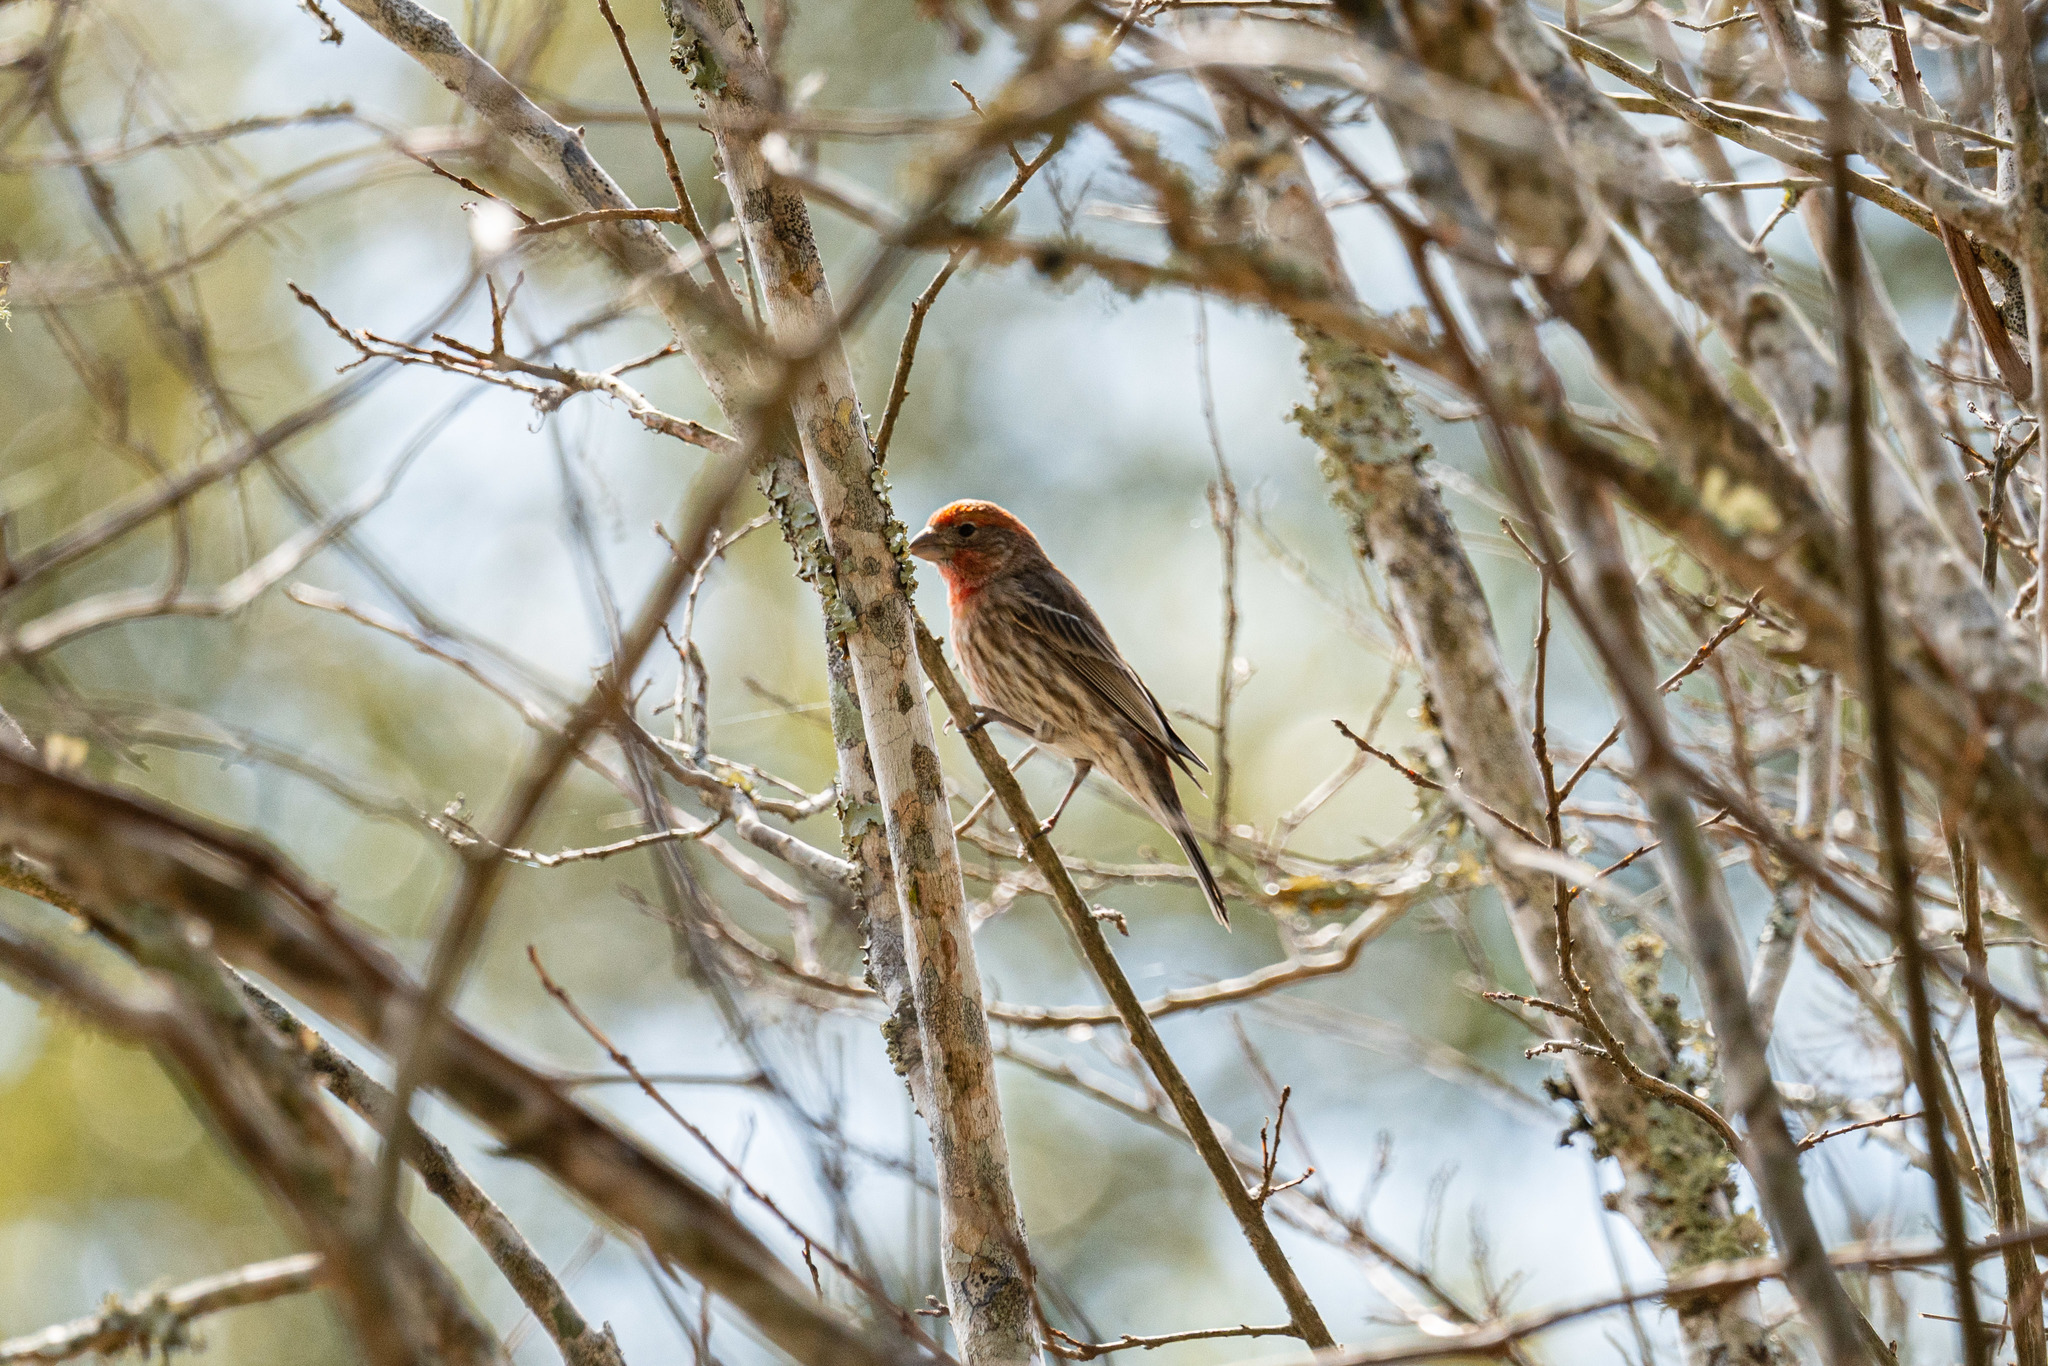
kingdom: Animalia
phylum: Chordata
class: Aves
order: Passeriformes
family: Fringillidae
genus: Haemorhous
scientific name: Haemorhous mexicanus
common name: House finch
